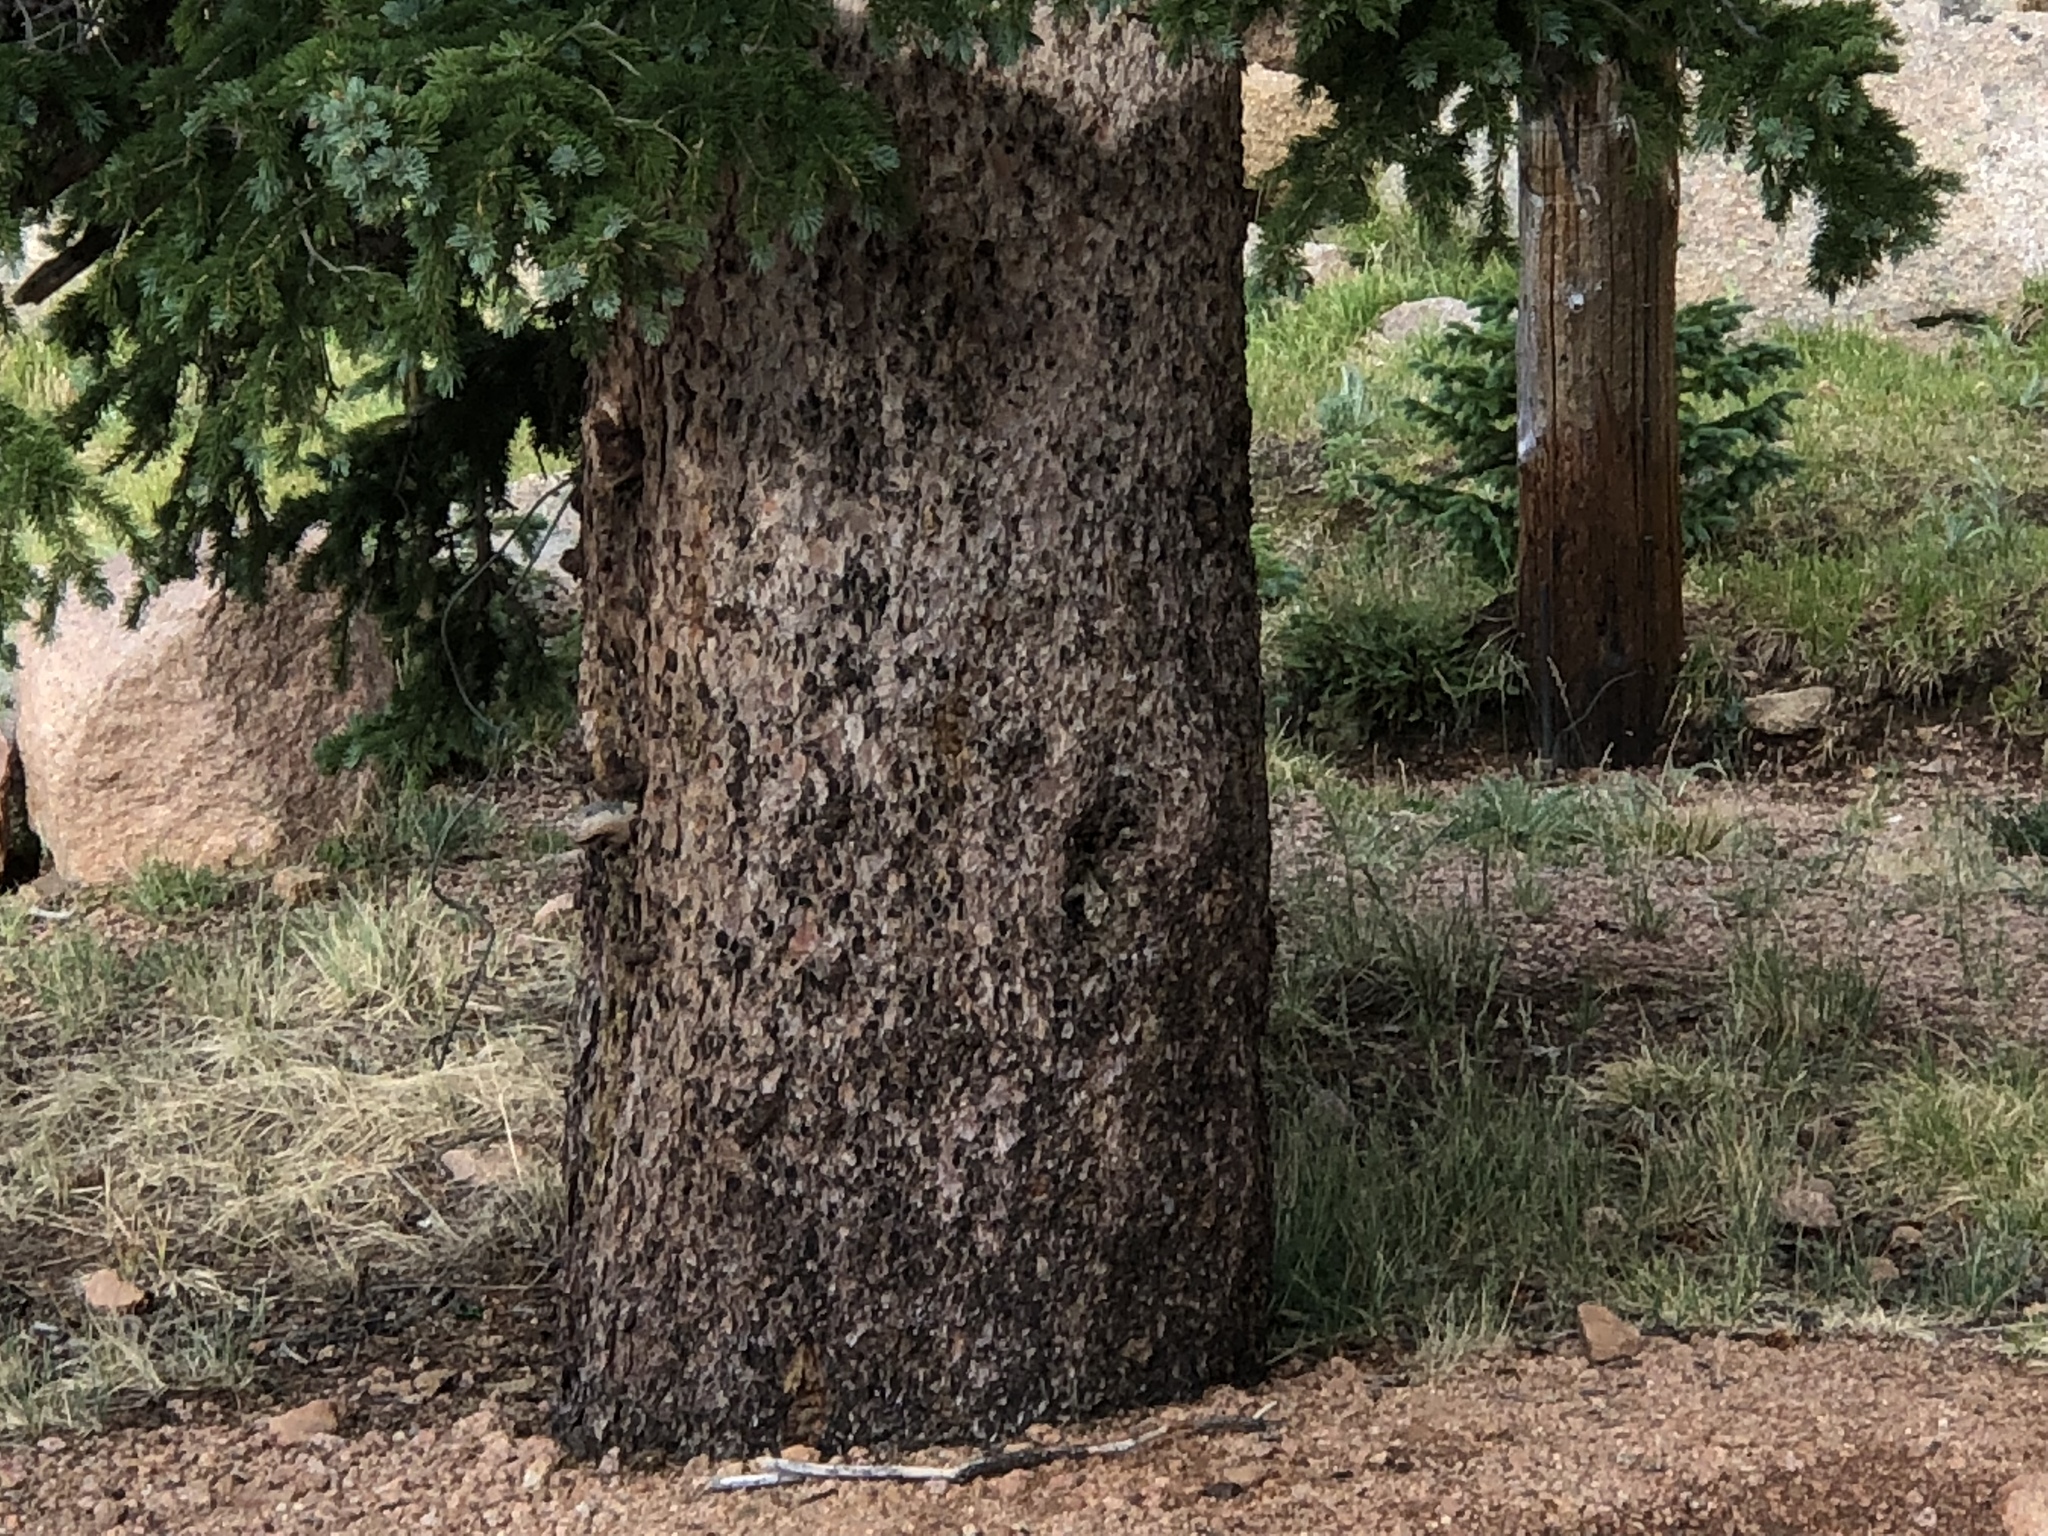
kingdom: Plantae
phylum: Tracheophyta
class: Pinopsida
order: Pinales
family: Pinaceae
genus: Picea
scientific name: Picea engelmannii
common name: Engelmann spruce
